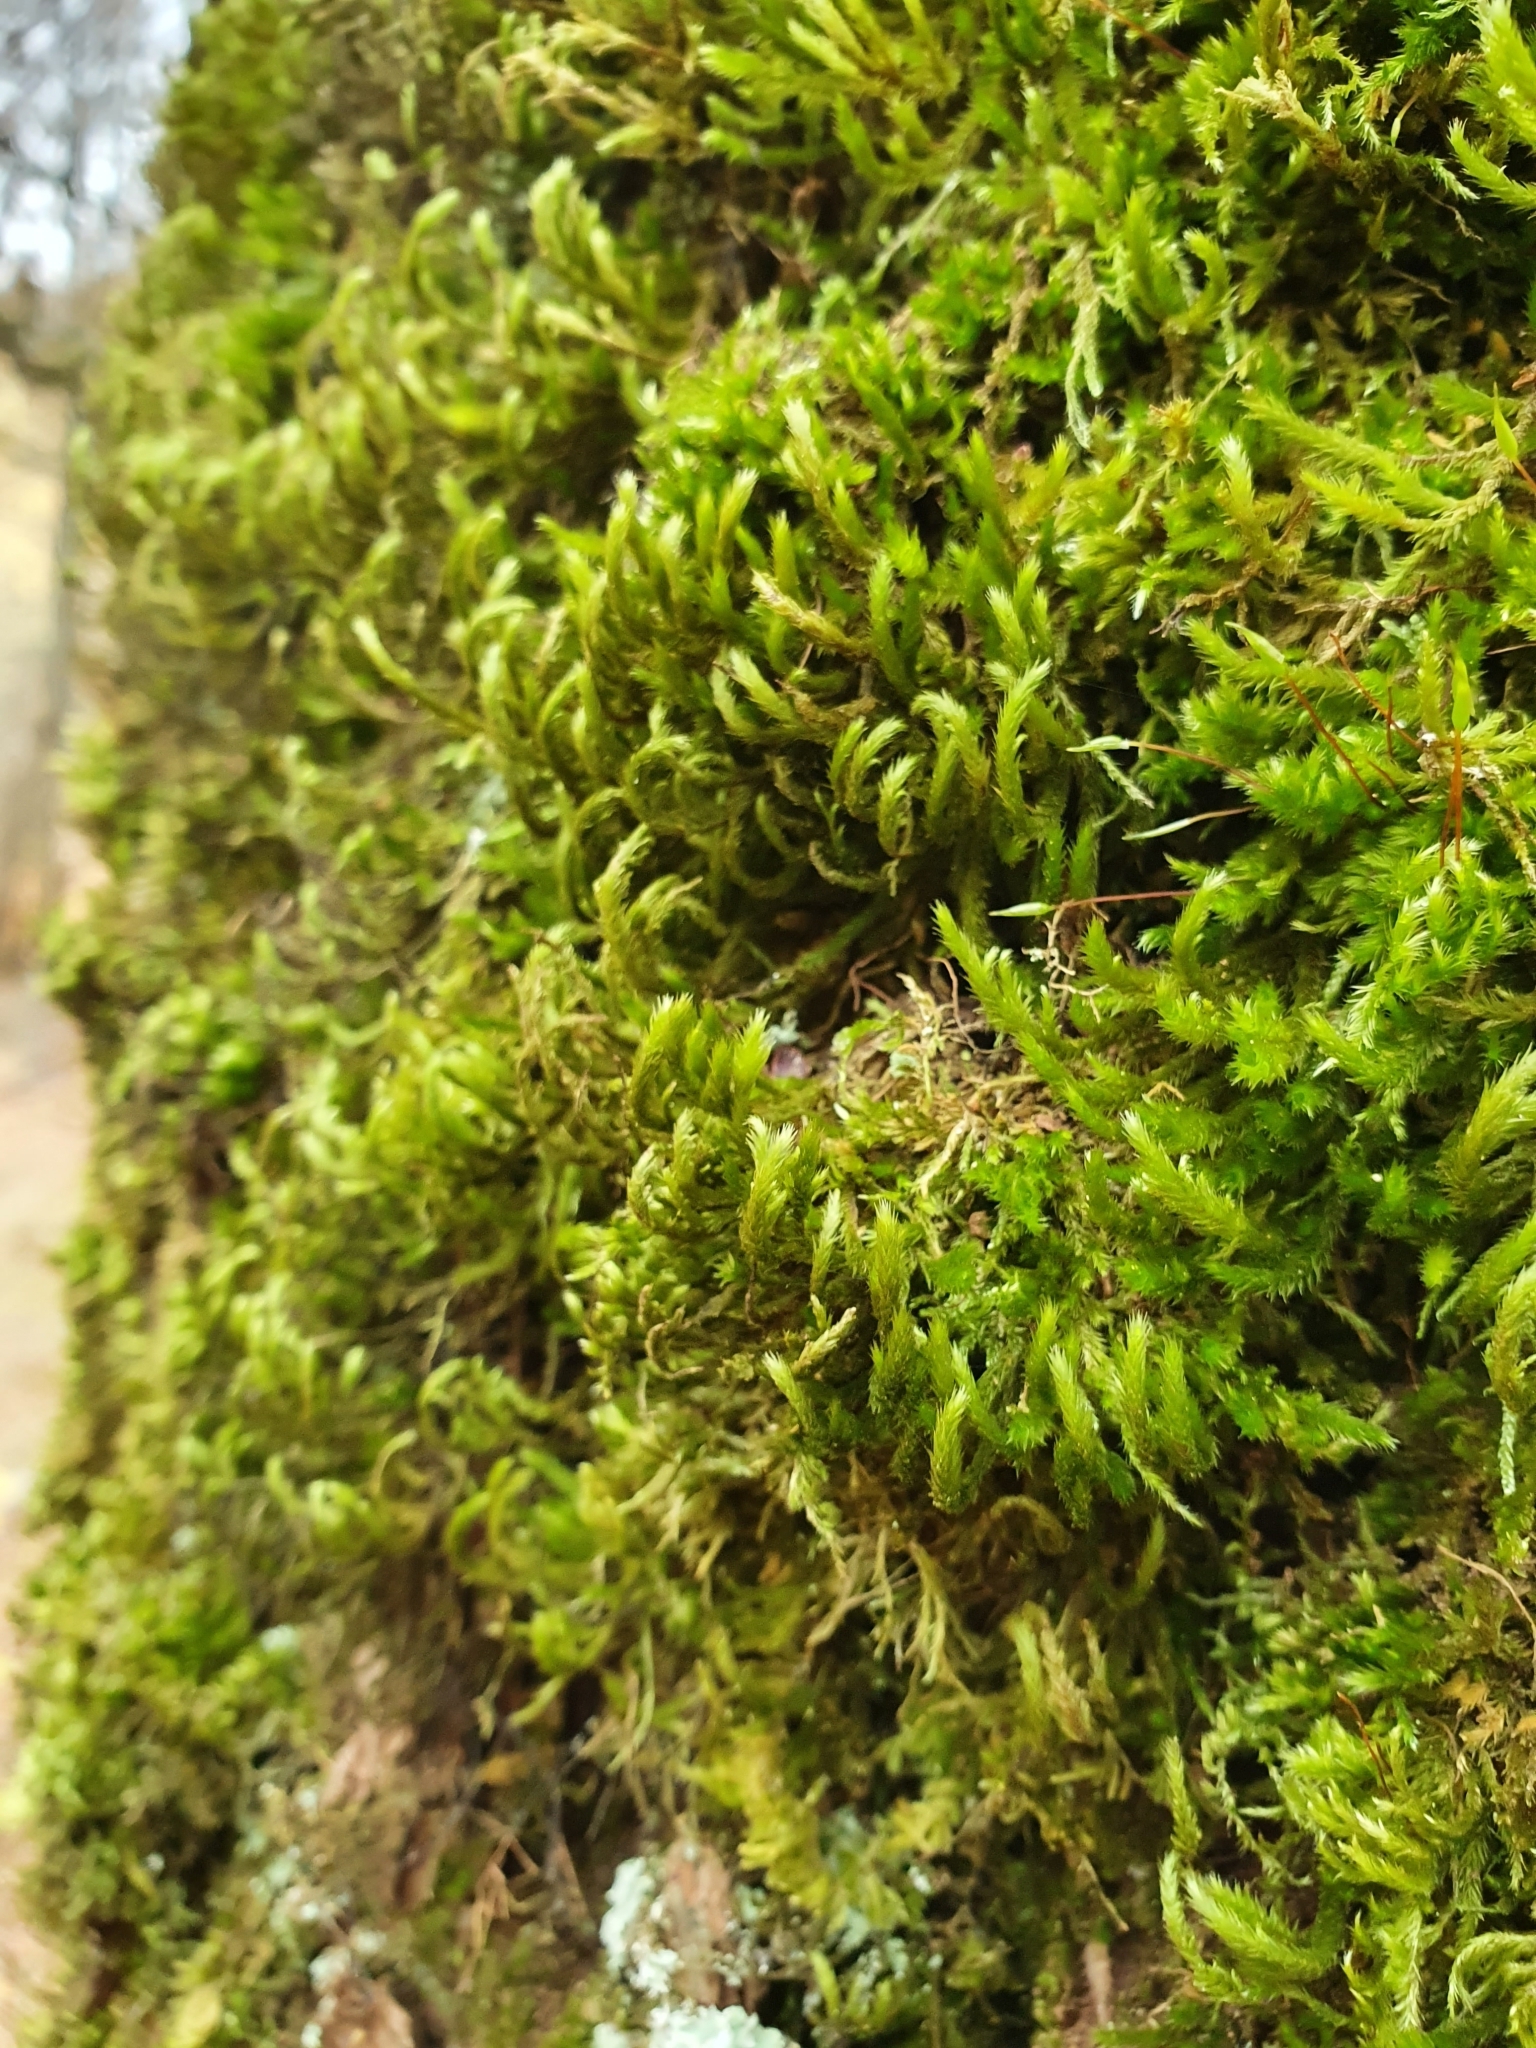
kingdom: Plantae
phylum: Bryophyta
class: Bryopsida
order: Hypnales
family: Leucodontaceae
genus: Leucodon
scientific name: Leucodon sciuroides
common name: Squirrel-tail moss
